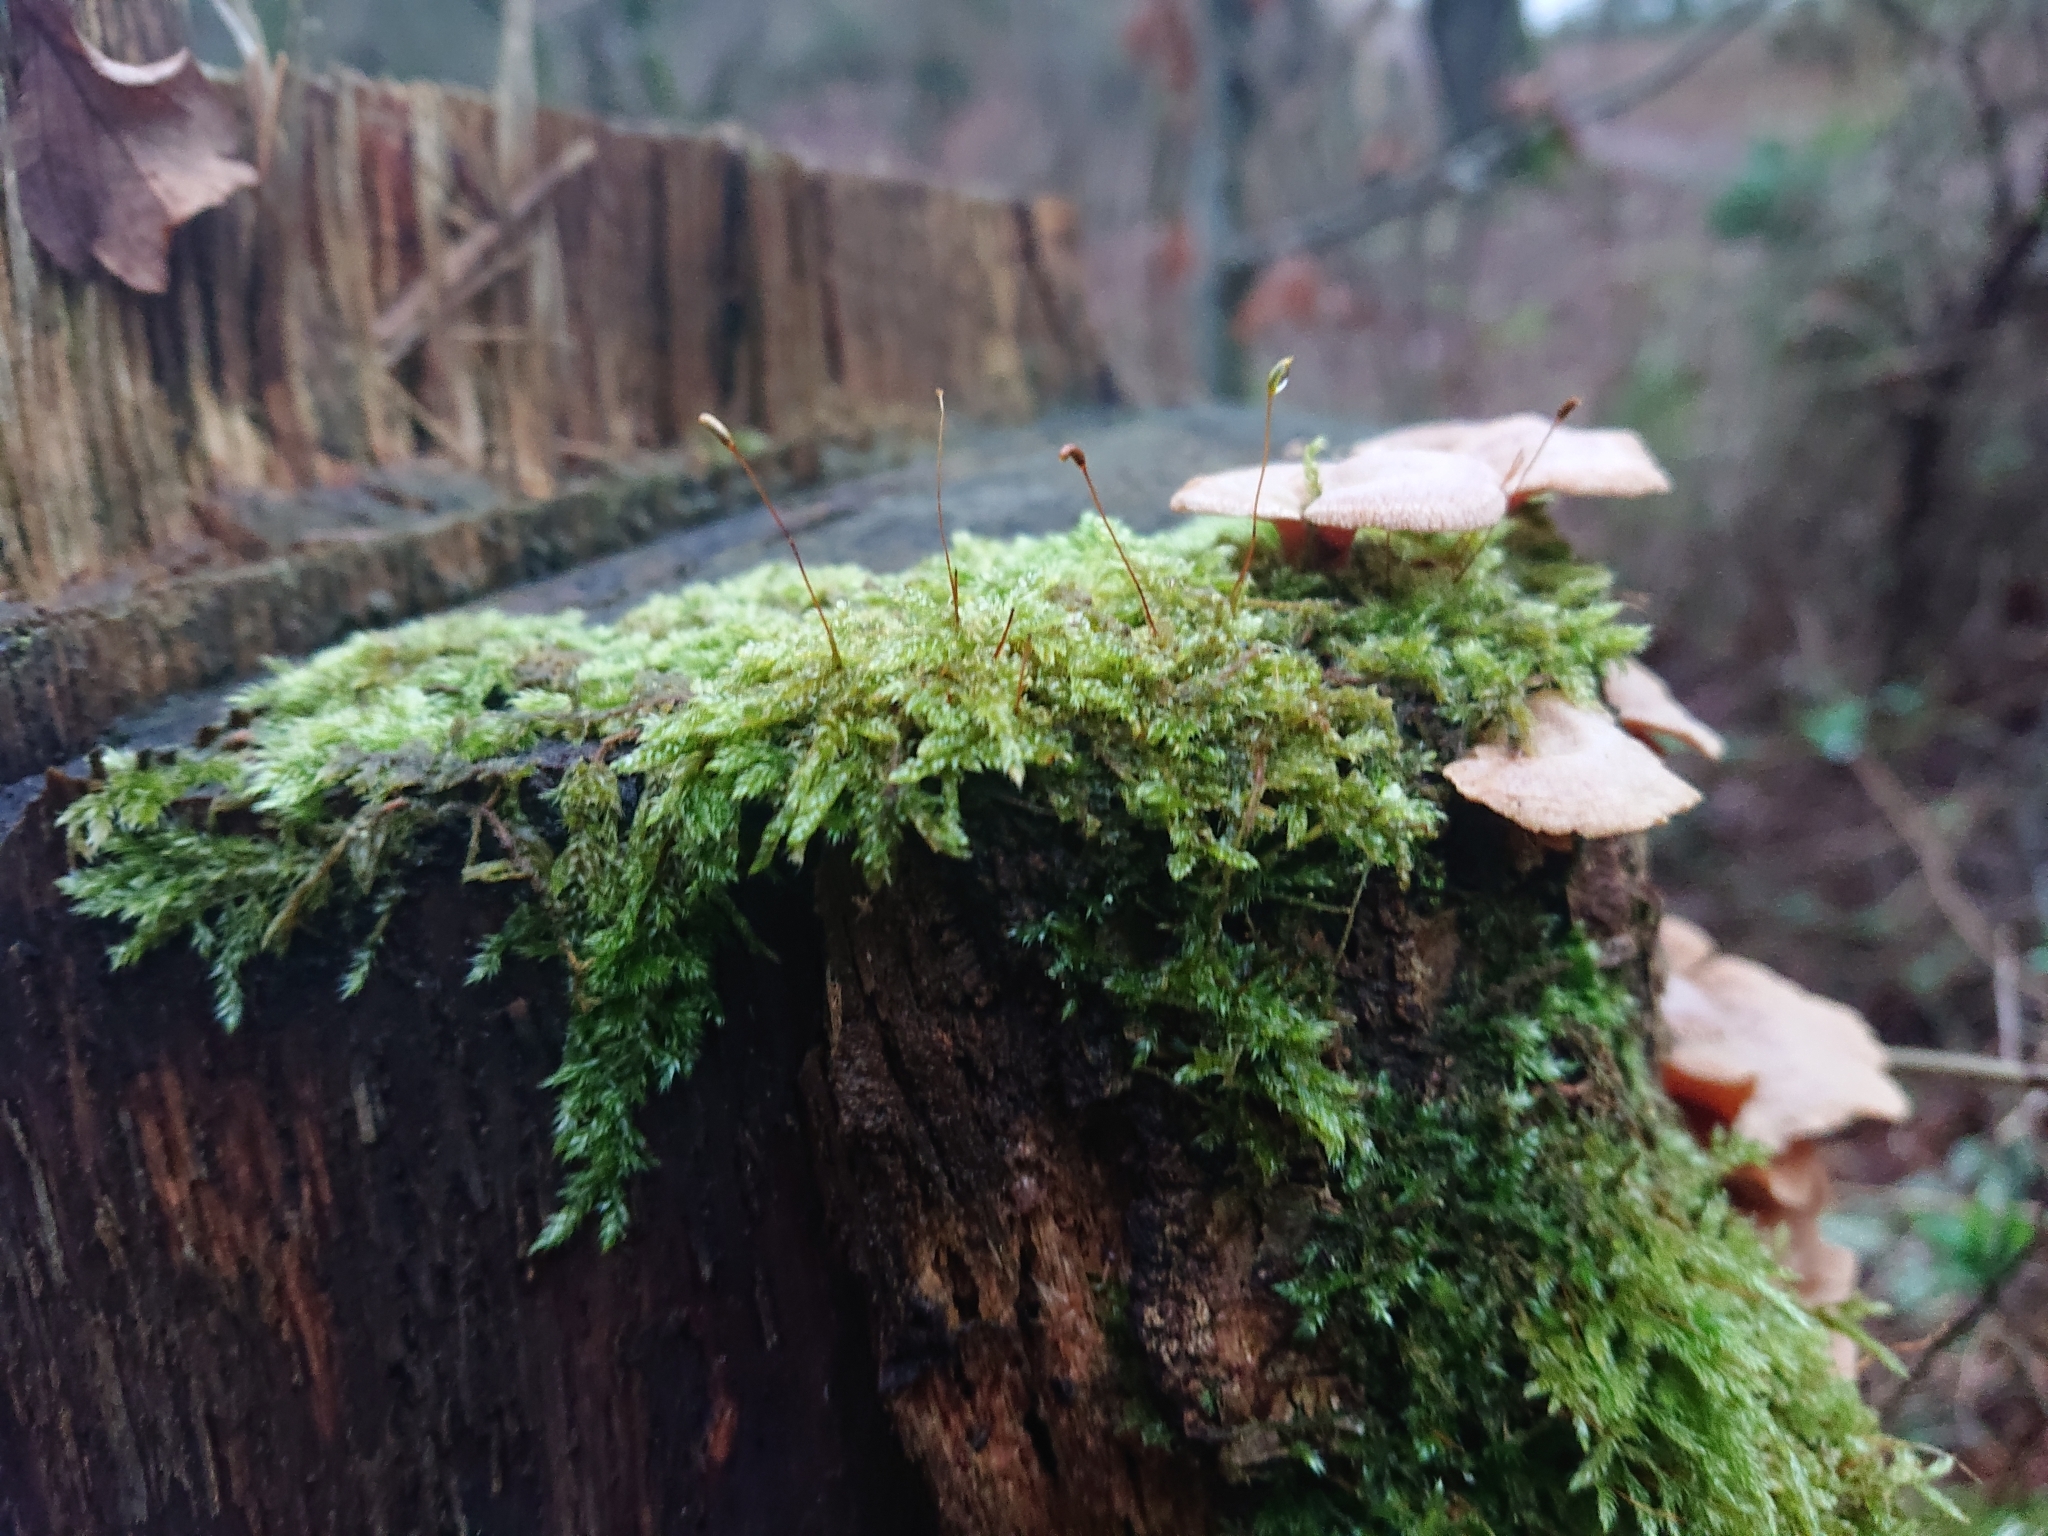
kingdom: Plantae
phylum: Bryophyta
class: Bryopsida
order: Hypnales
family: Hypnaceae
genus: Hypnum
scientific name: Hypnum cupressiforme
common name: Cypress-leaved plait-moss
